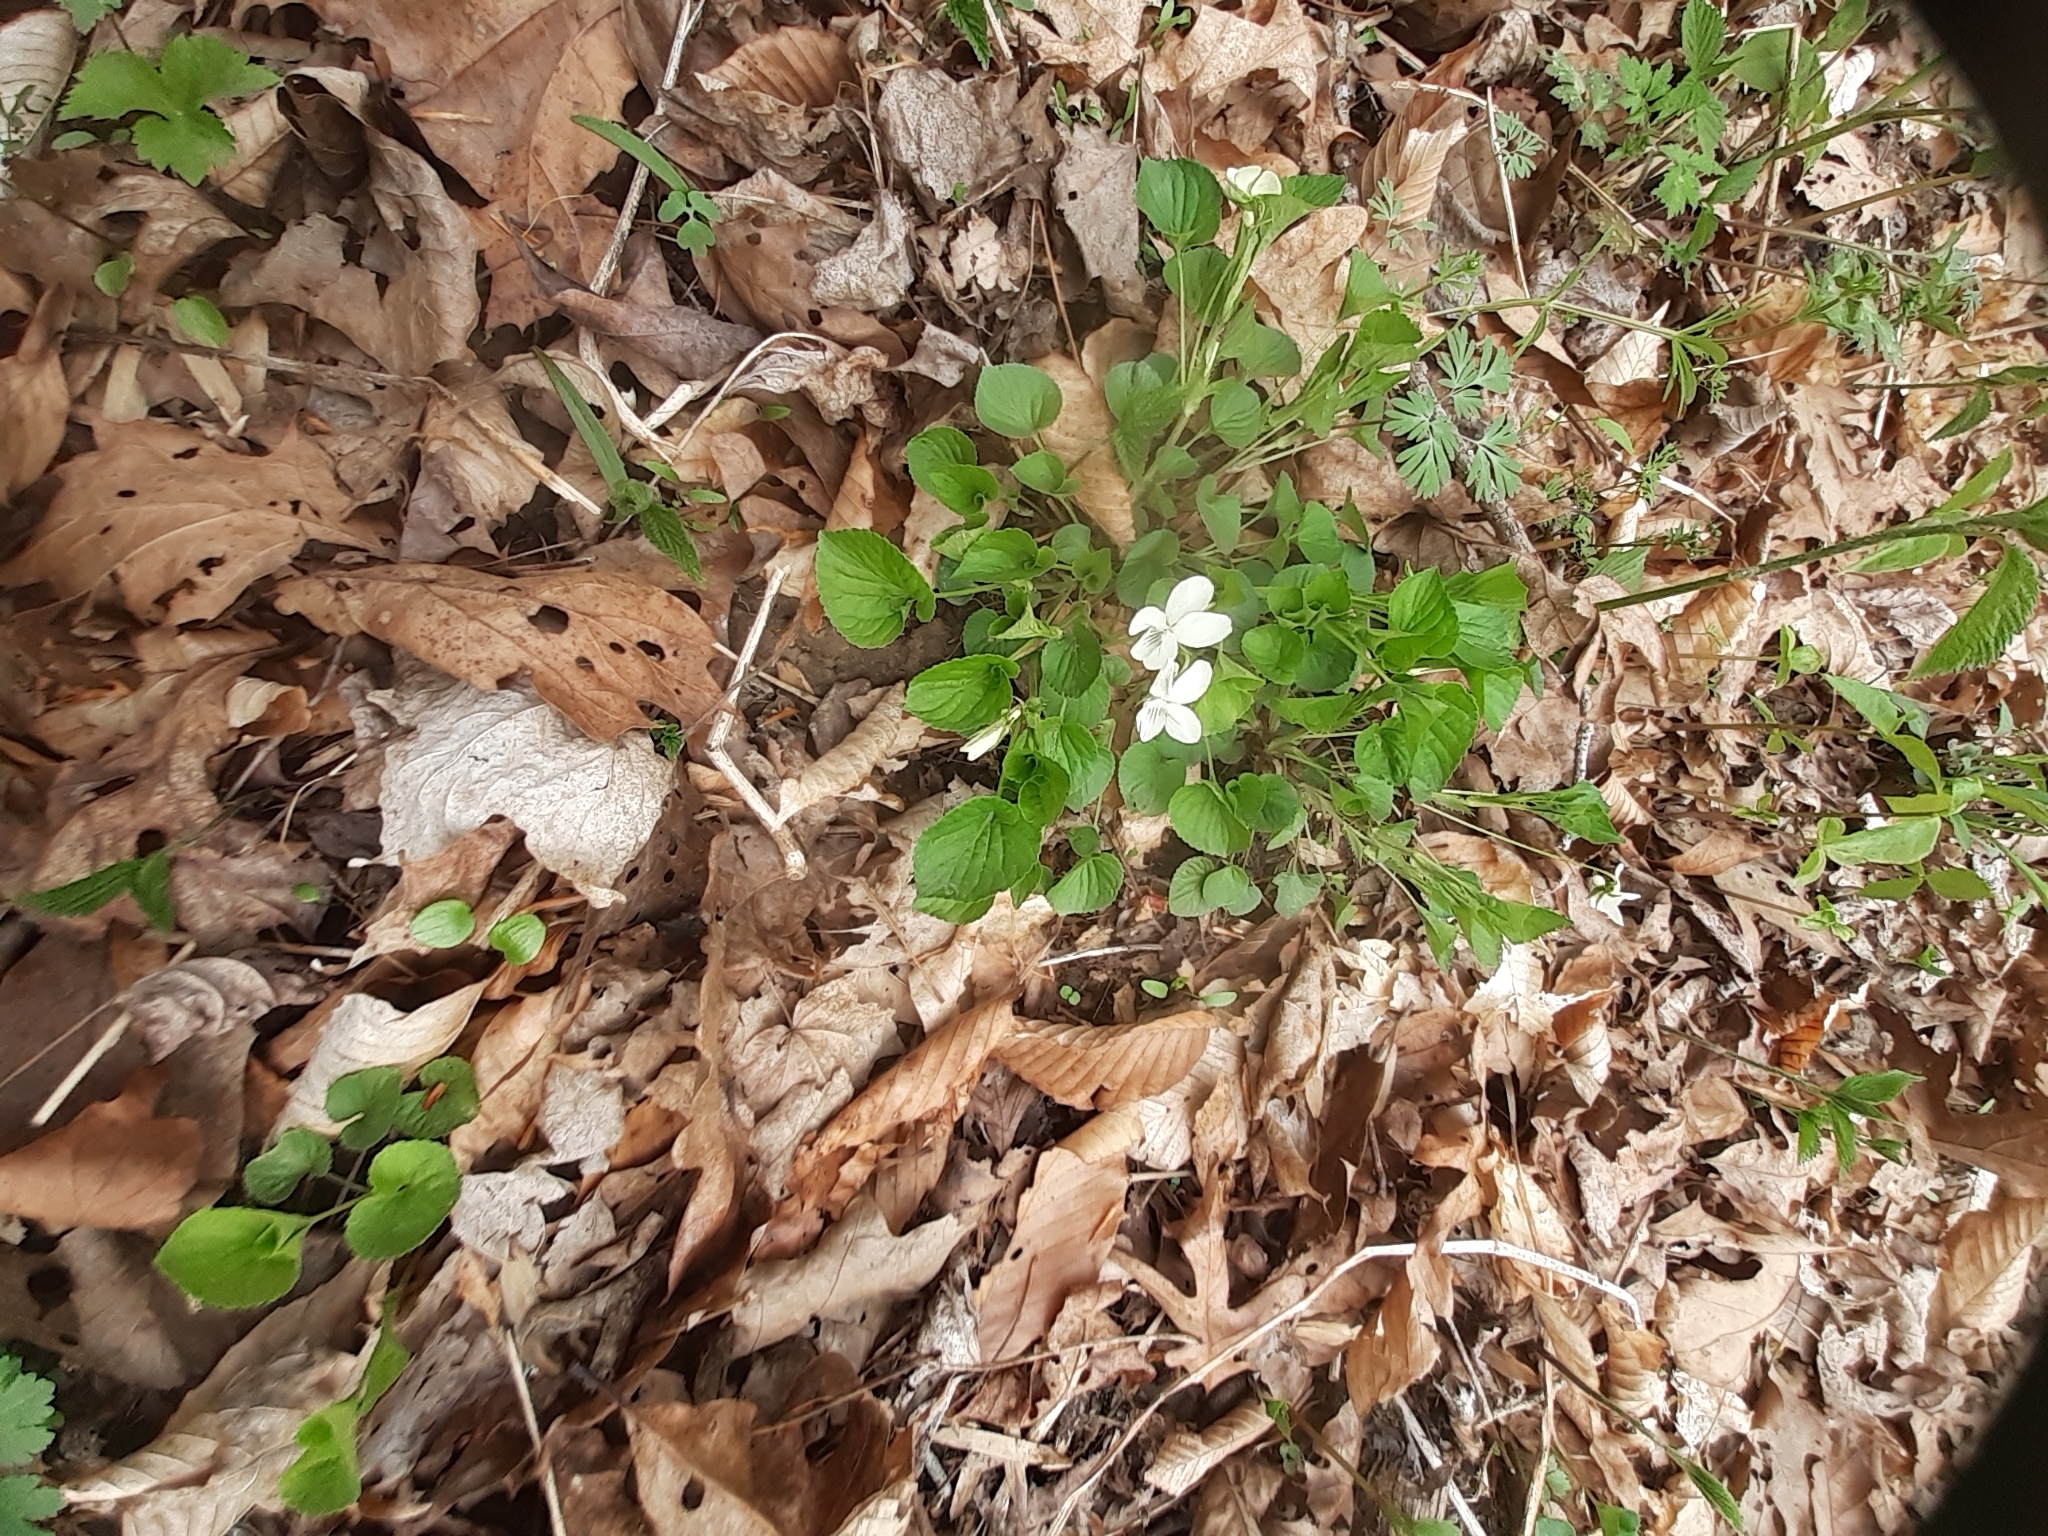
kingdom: Plantae
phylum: Tracheophyta
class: Magnoliopsida
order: Malpighiales
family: Violaceae
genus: Viola
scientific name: Viola striata
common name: Cream violet
